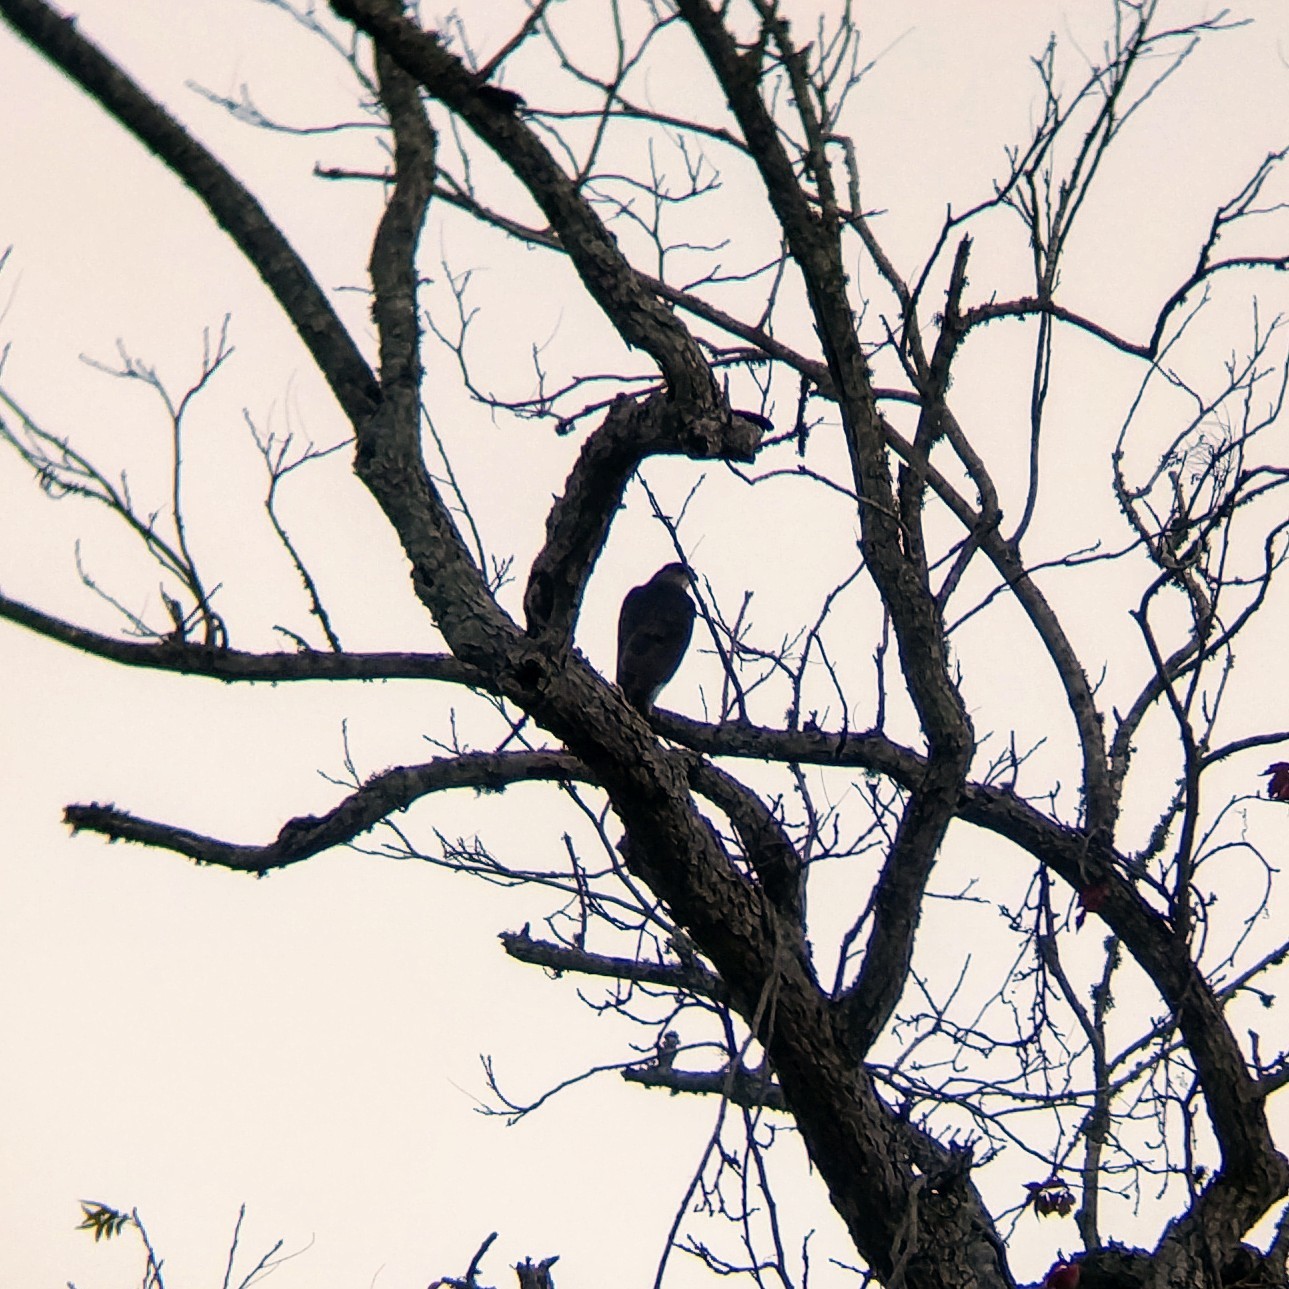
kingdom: Animalia
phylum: Chordata
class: Aves
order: Accipitriformes
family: Accipitridae
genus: Accipiter
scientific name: Accipiter cooperii
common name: Cooper's hawk
